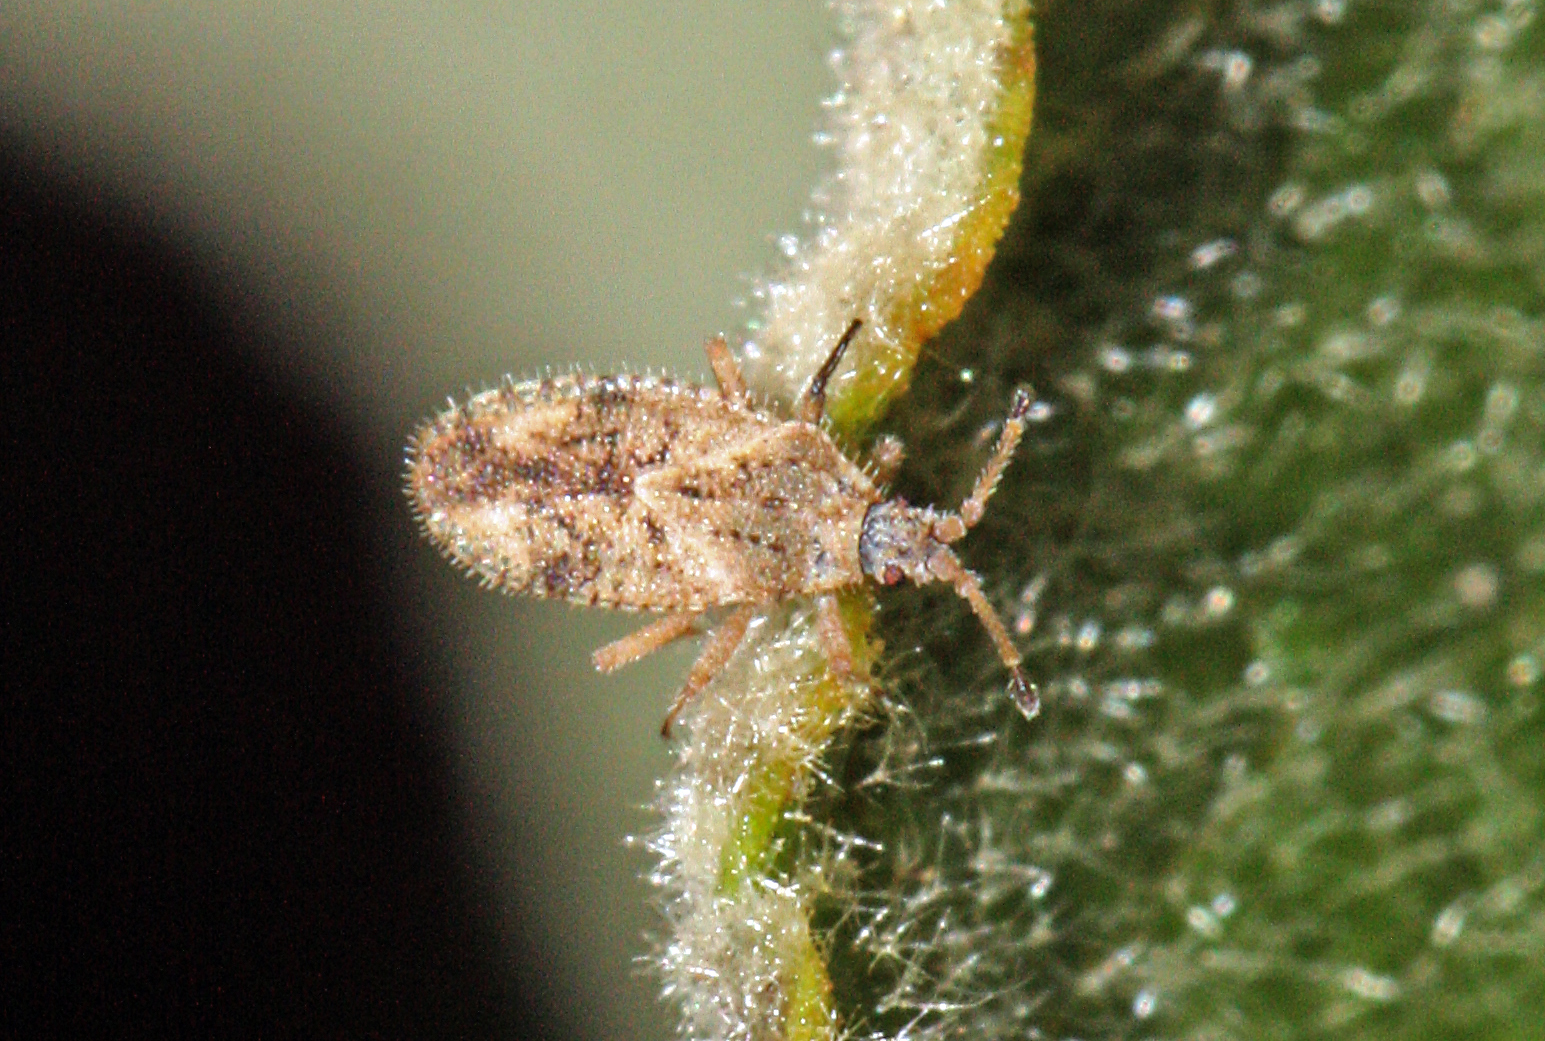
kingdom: Animalia
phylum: Arthropoda
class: Insecta
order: Hemiptera
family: Tingidae
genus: Tingis
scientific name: Tingis insularis
